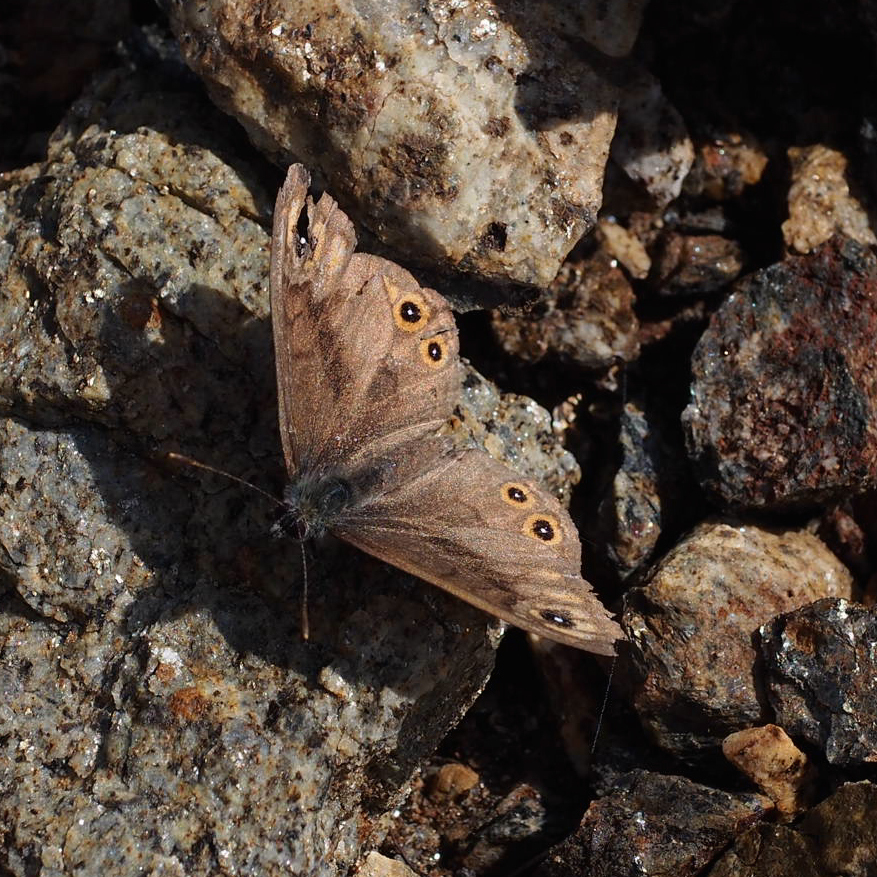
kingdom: Animalia
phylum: Arthropoda
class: Insecta
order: Lepidoptera
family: Nymphalidae
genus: Pararge
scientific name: Pararge petropolitana
